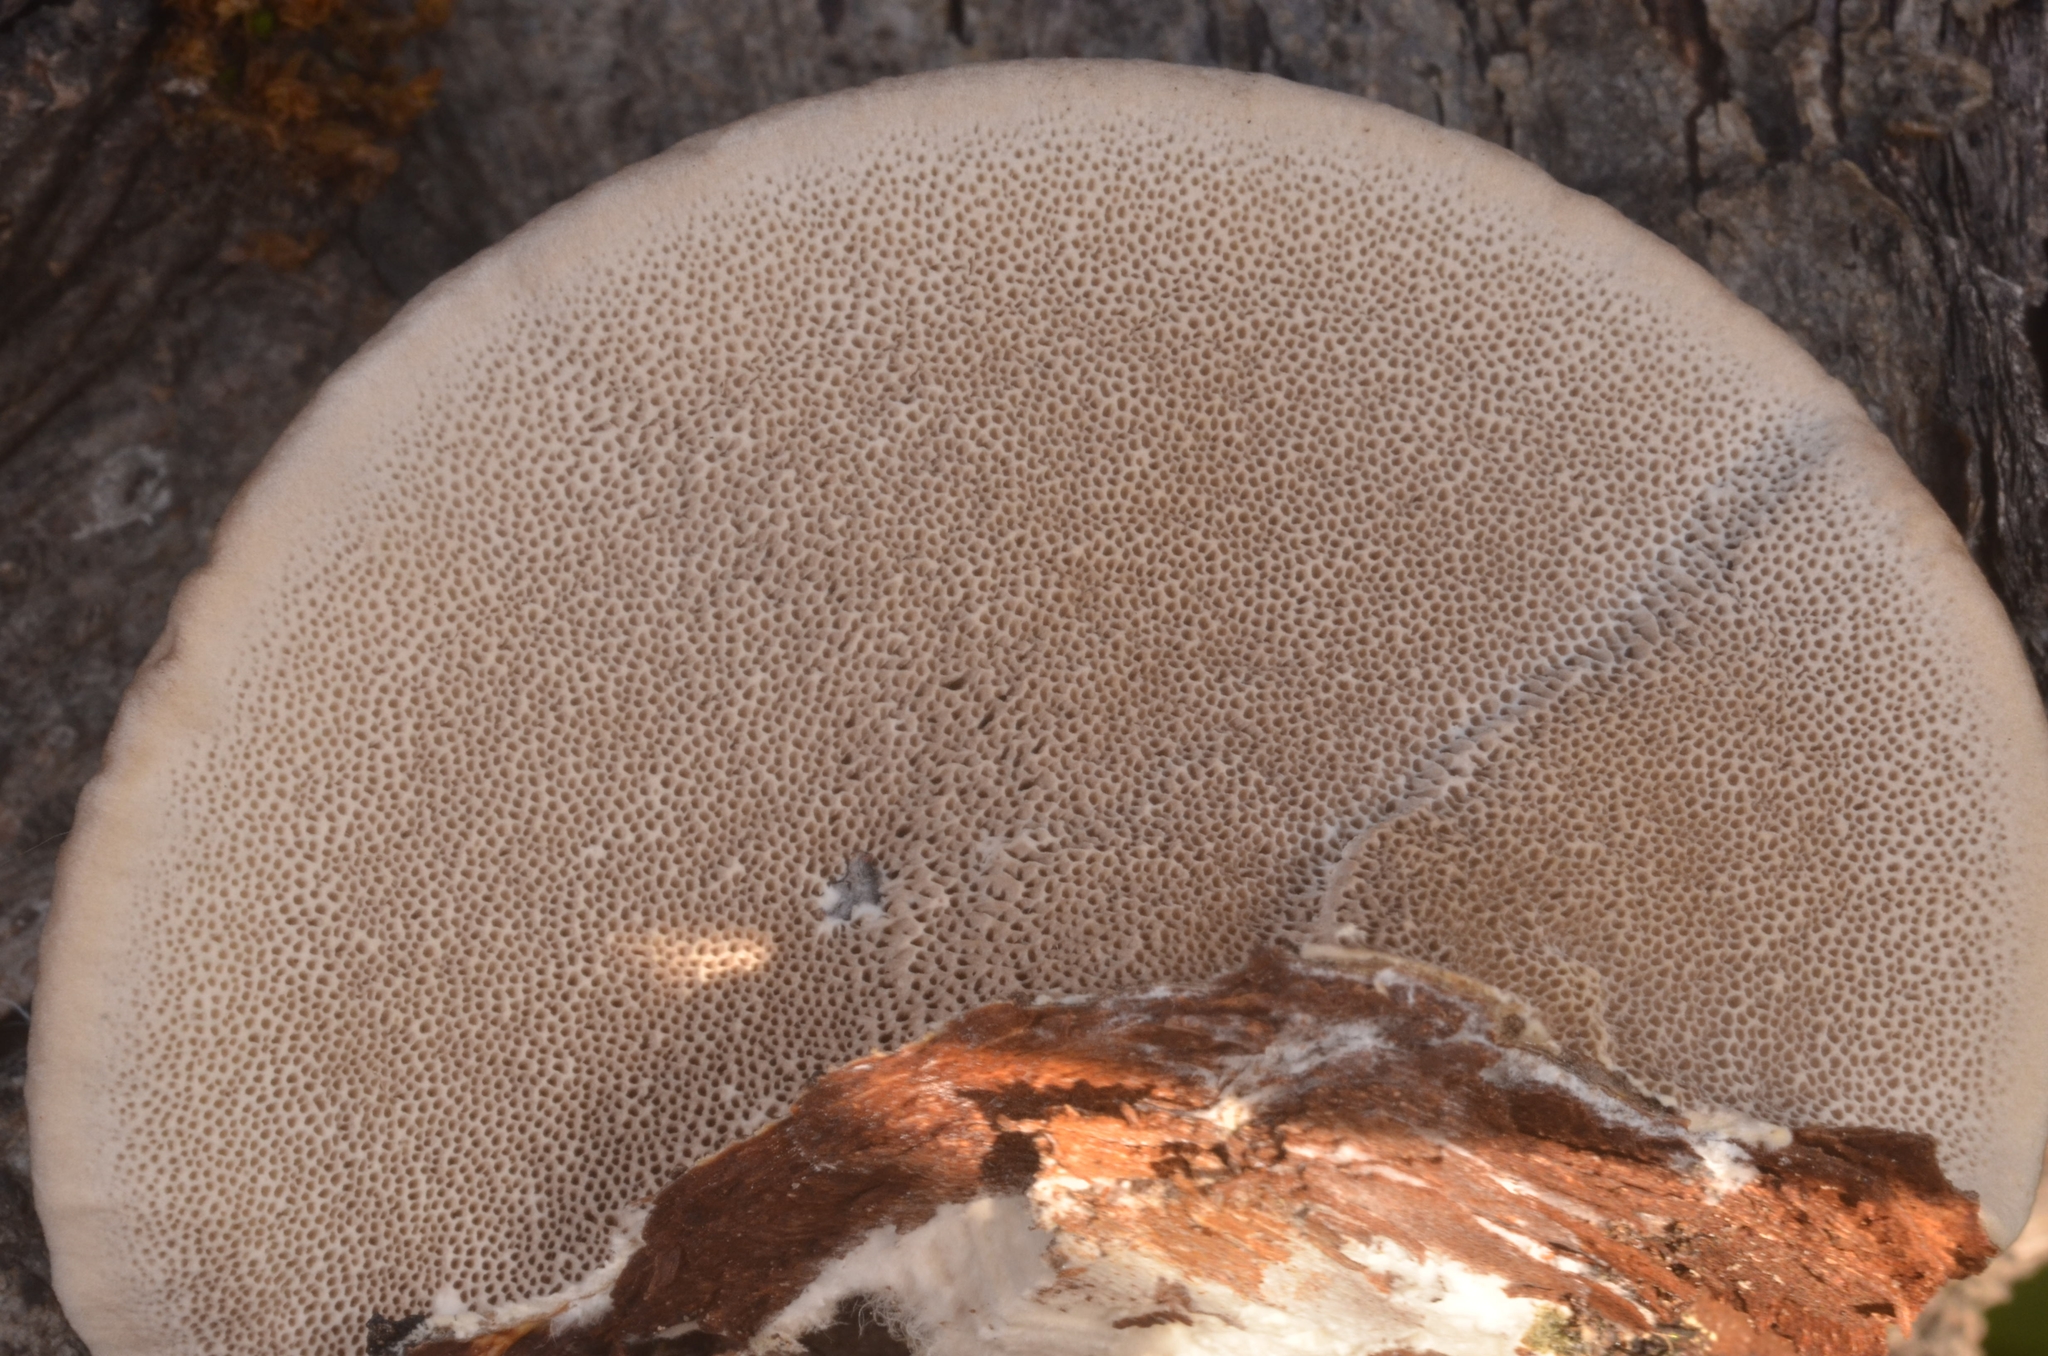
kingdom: Fungi
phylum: Basidiomycota
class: Agaricomycetes
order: Polyporales
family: Polyporaceae
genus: Trametes
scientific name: Trametes hirsuta
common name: Hairy bracket
